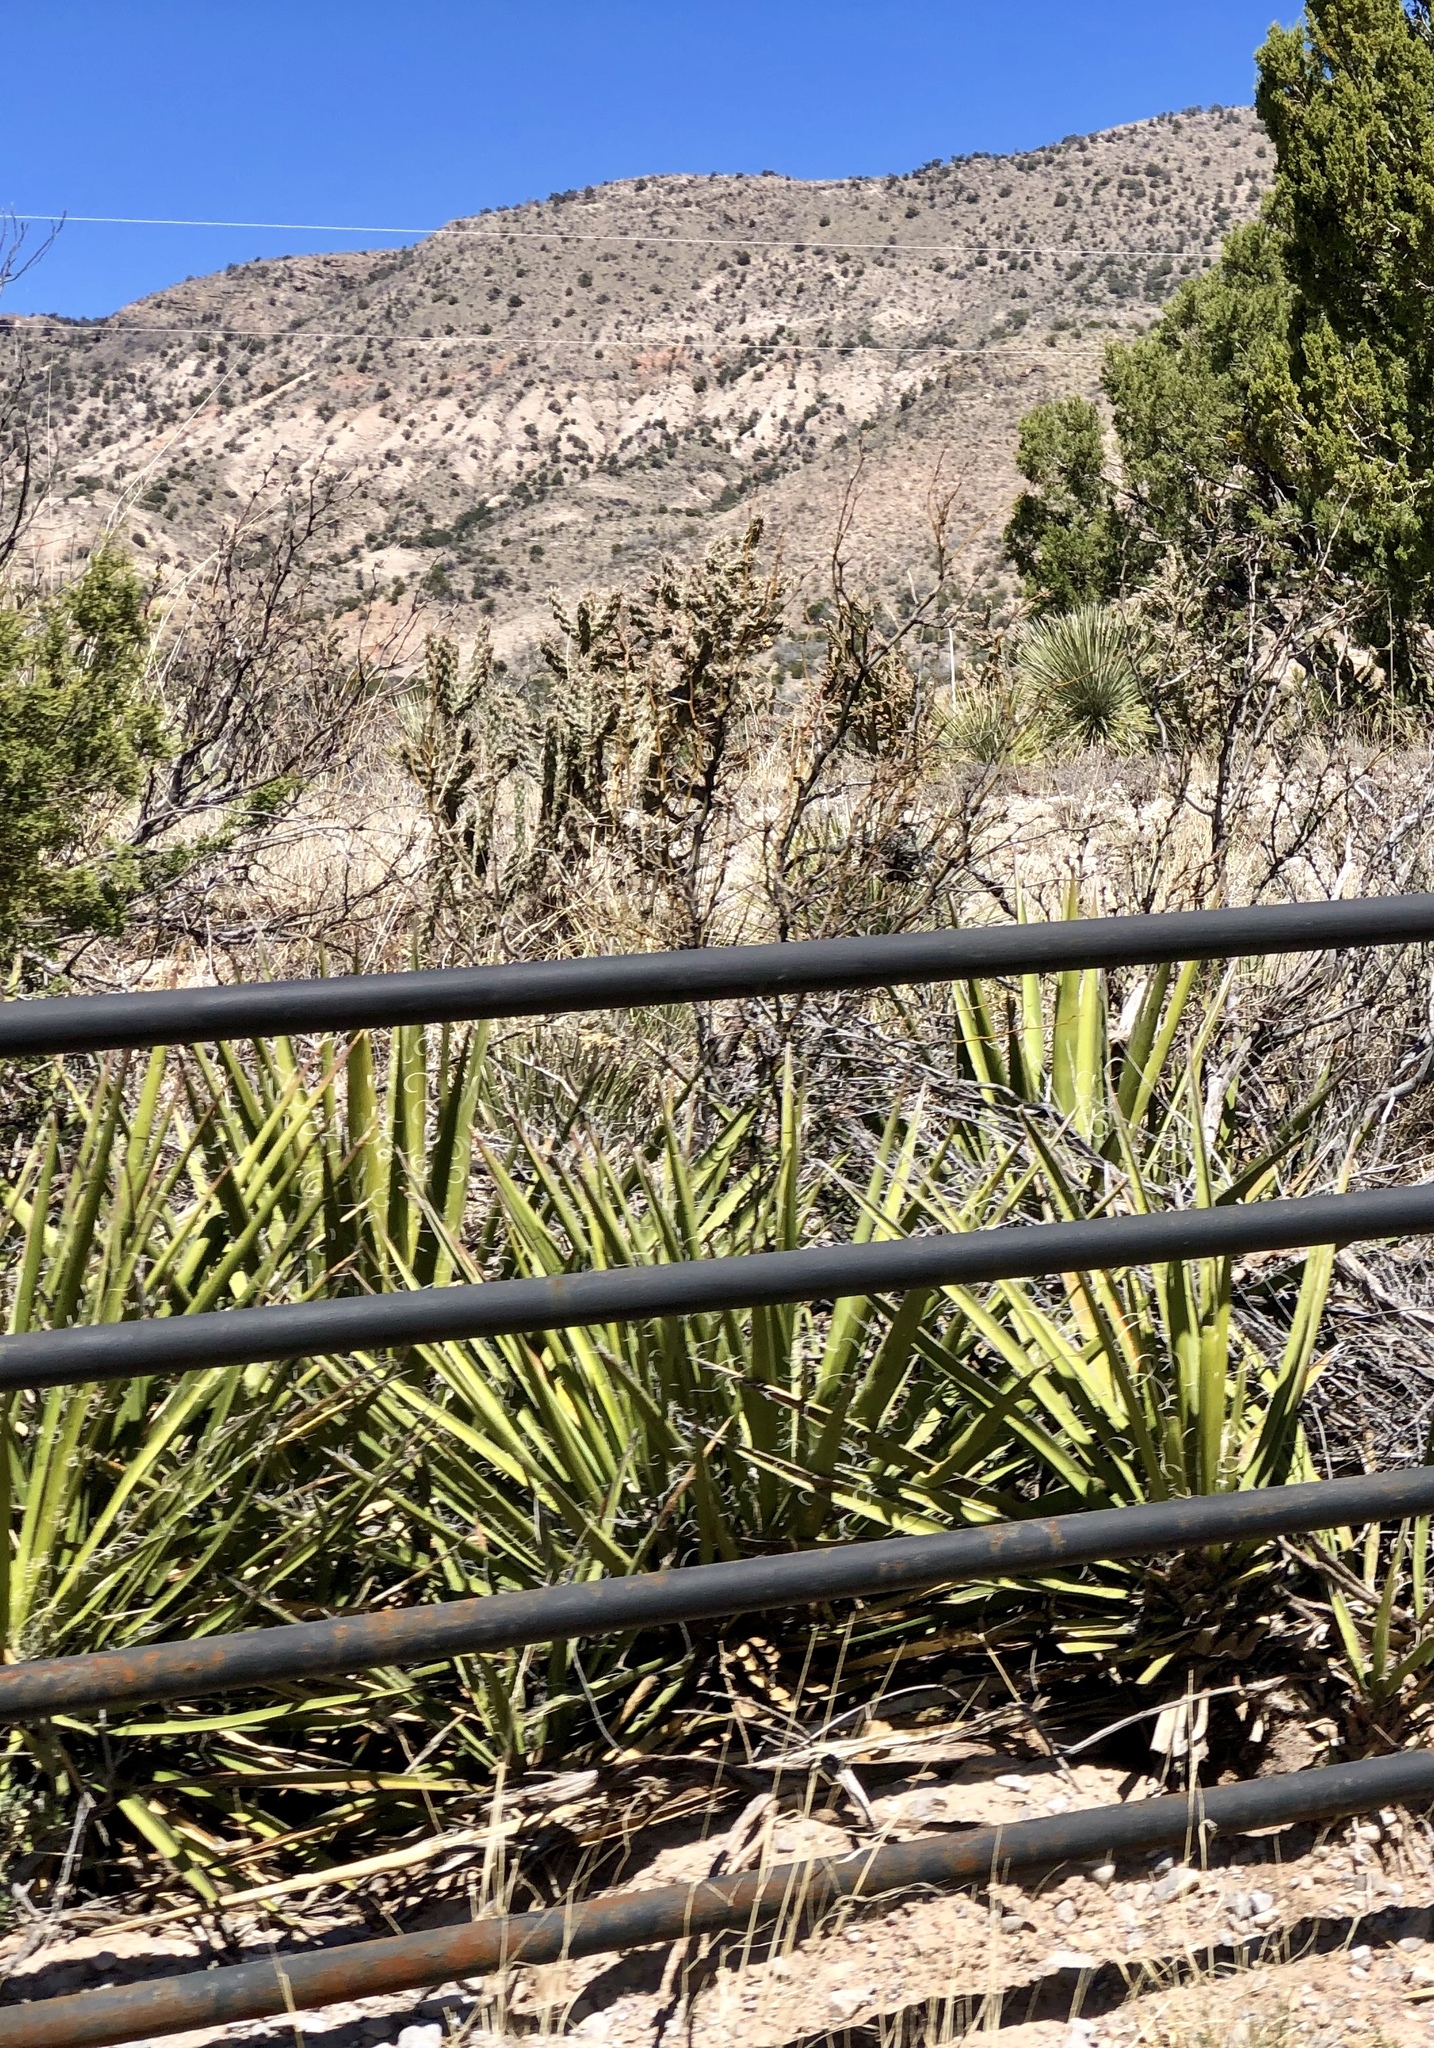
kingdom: Plantae
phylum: Tracheophyta
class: Liliopsida
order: Asparagales
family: Asparagaceae
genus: Yucca
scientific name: Yucca baccata
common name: Banana yucca
